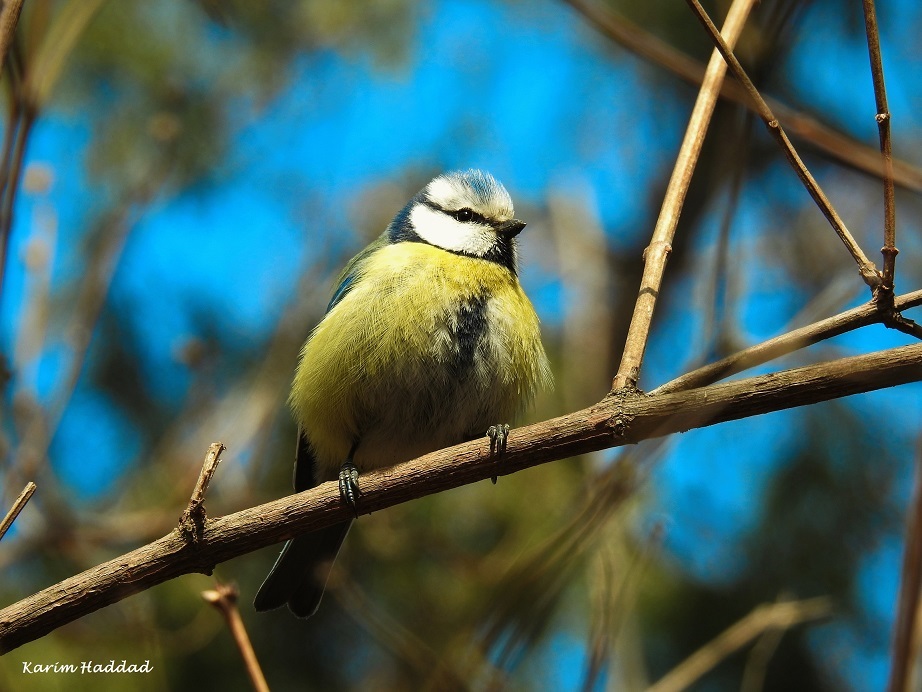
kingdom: Animalia
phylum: Chordata
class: Aves
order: Passeriformes
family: Paridae
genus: Cyanistes
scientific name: Cyanistes caeruleus
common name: Eurasian blue tit
